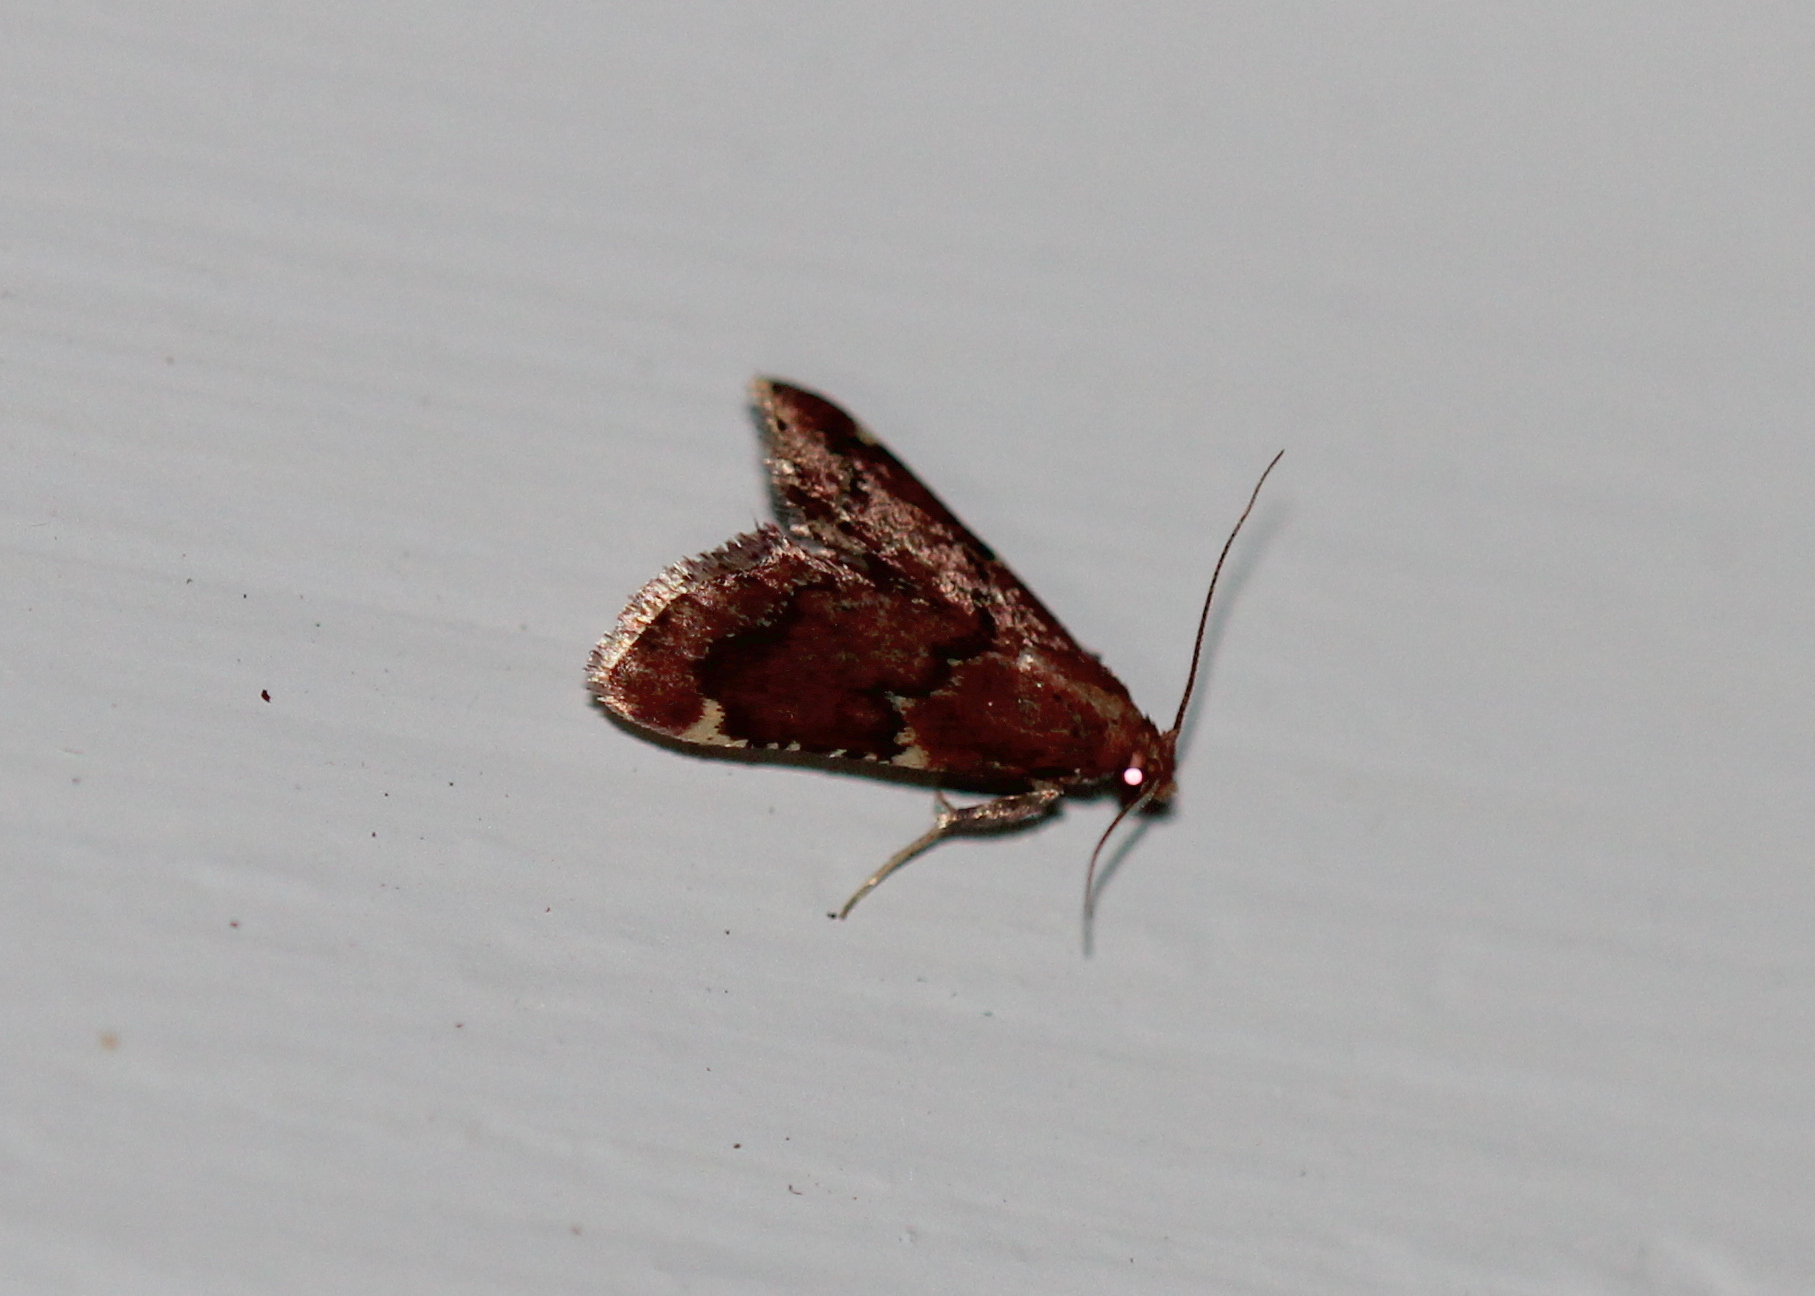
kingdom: Animalia
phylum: Arthropoda
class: Insecta
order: Lepidoptera
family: Pyralidae
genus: Hypsopygia
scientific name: Hypsopygia intermedialis
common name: Red-shawled moth
